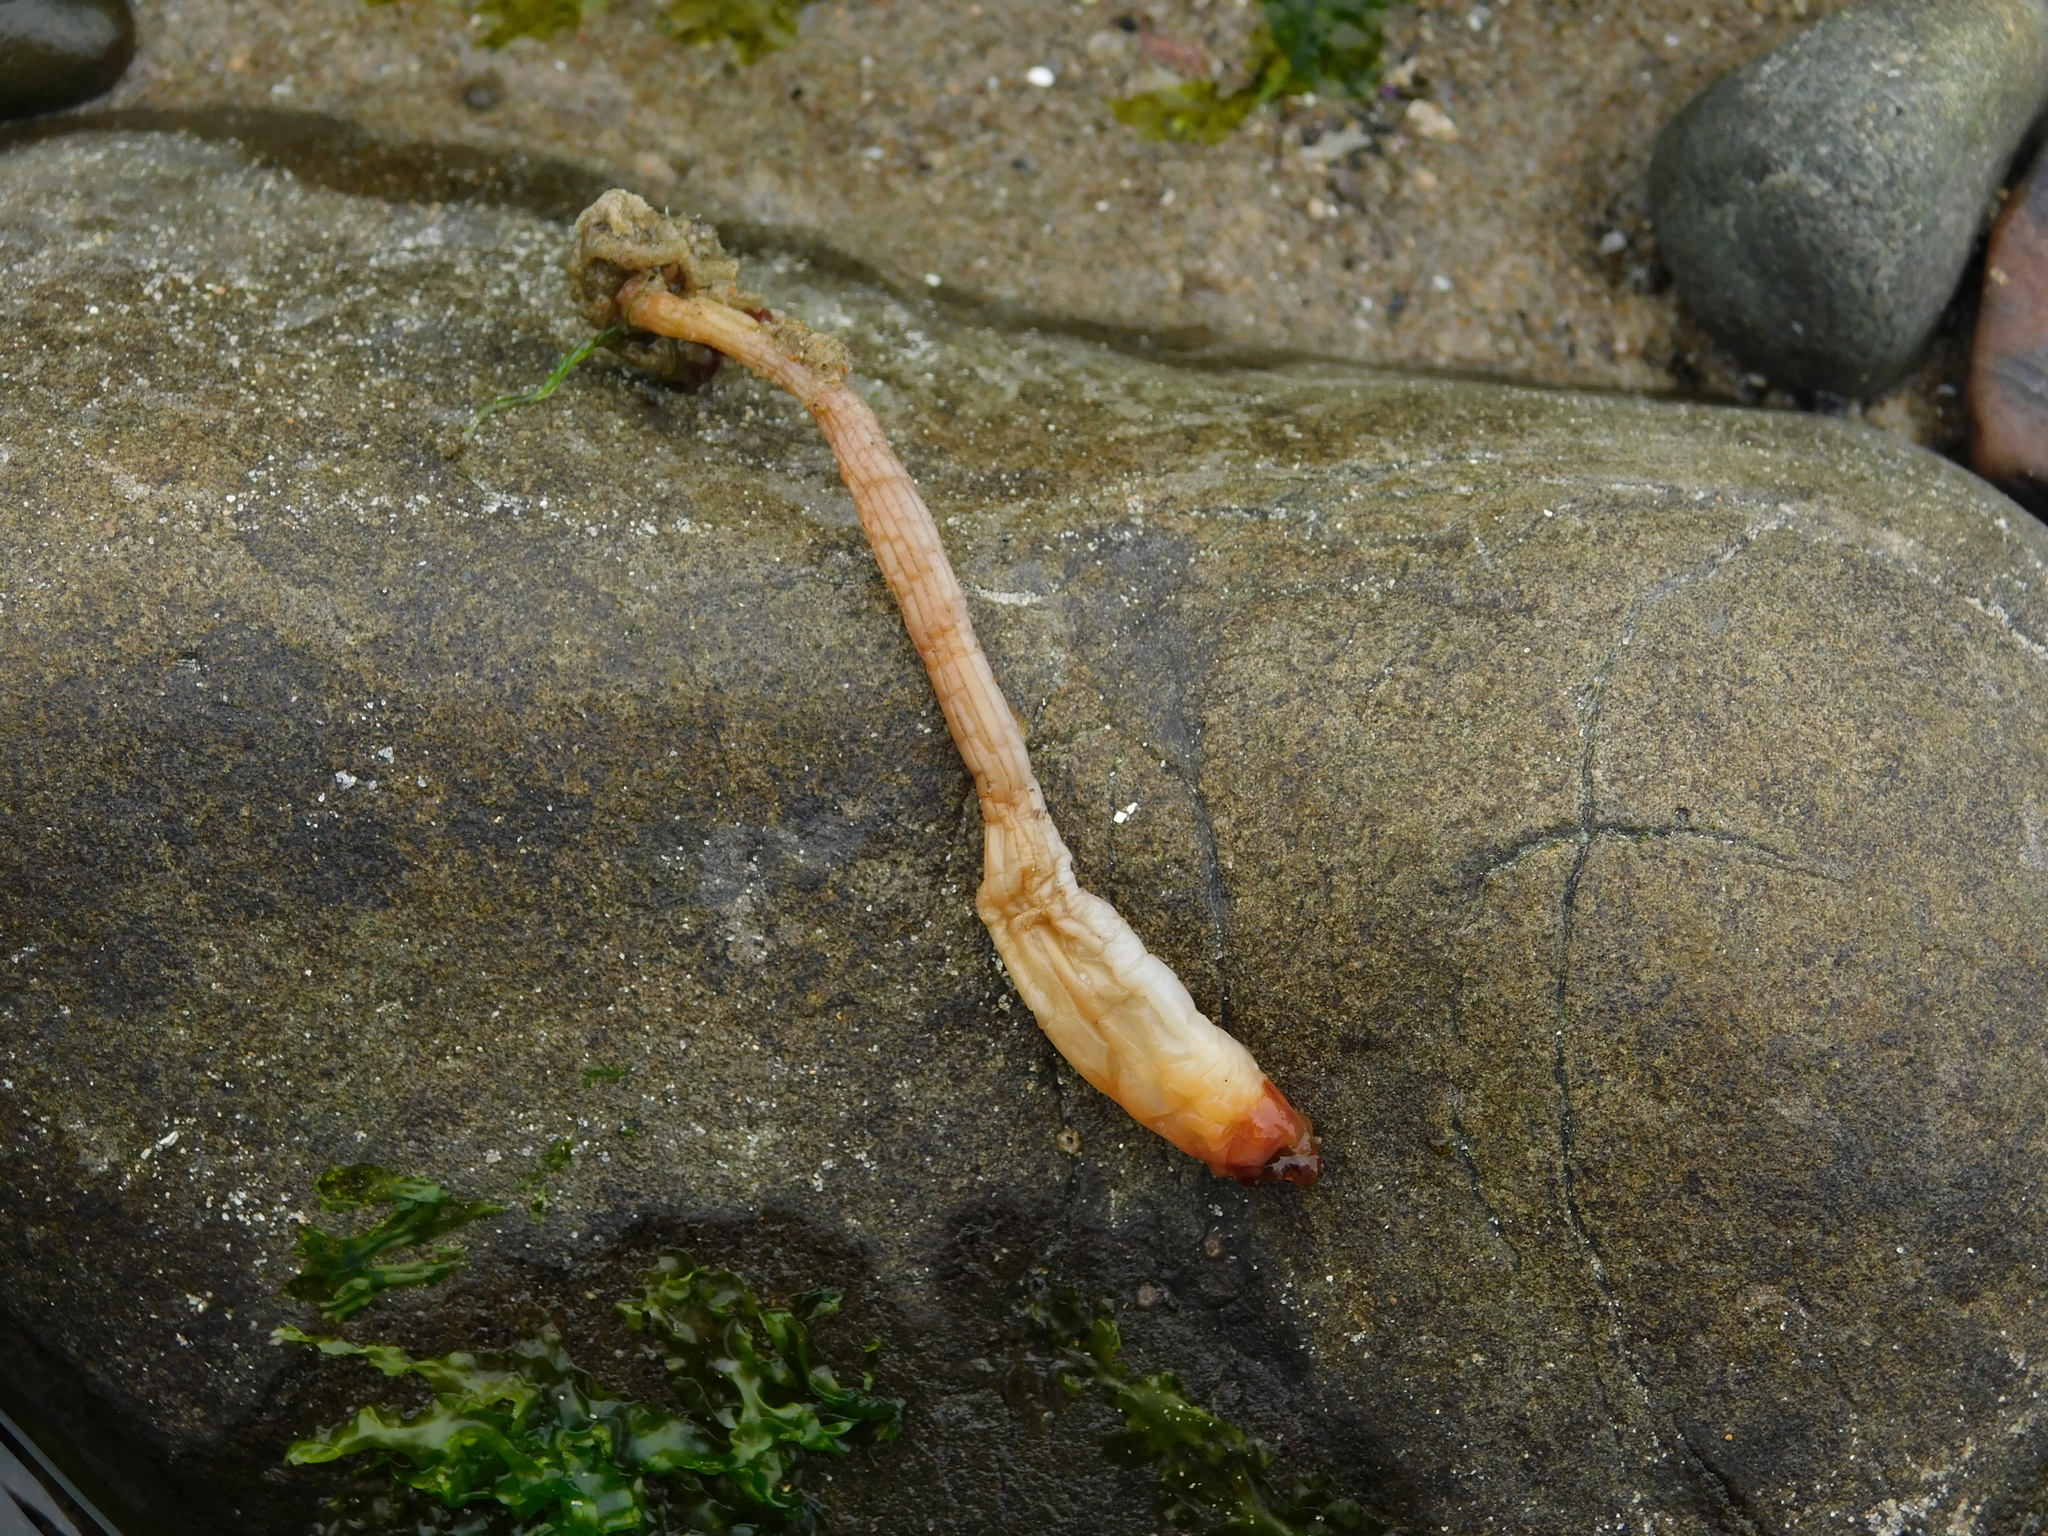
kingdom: Animalia
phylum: Chordata
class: Ascidiacea
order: Stolidobranchia
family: Styelidae
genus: Styela
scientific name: Styela montereyensis
